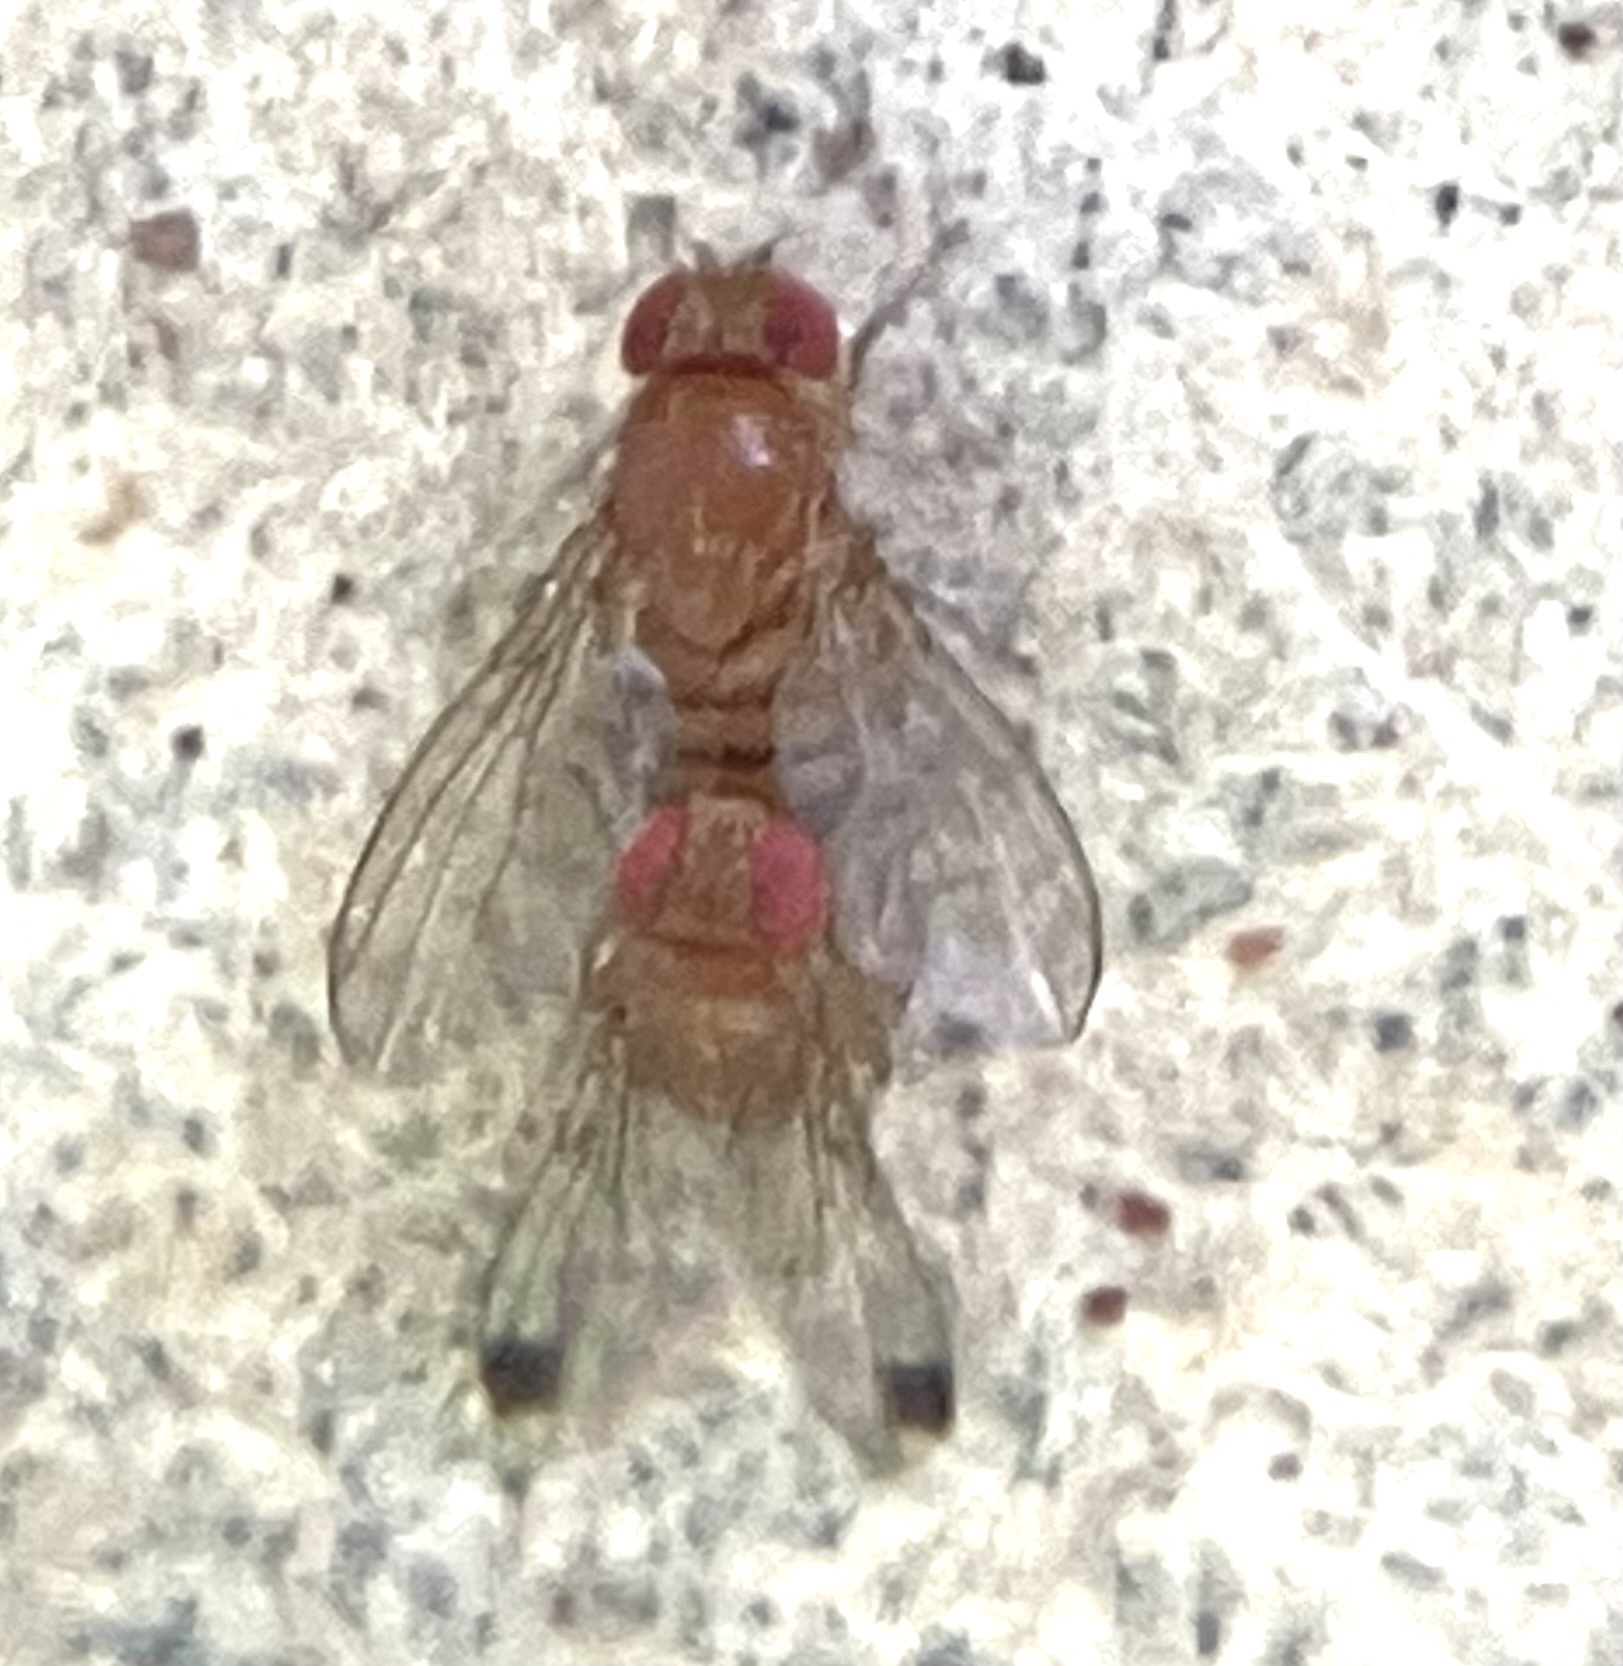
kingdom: Animalia
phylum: Arthropoda
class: Insecta
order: Diptera
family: Drosophilidae
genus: Drosophila
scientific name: Drosophila suzukii
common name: Spotted-wing drosophila
